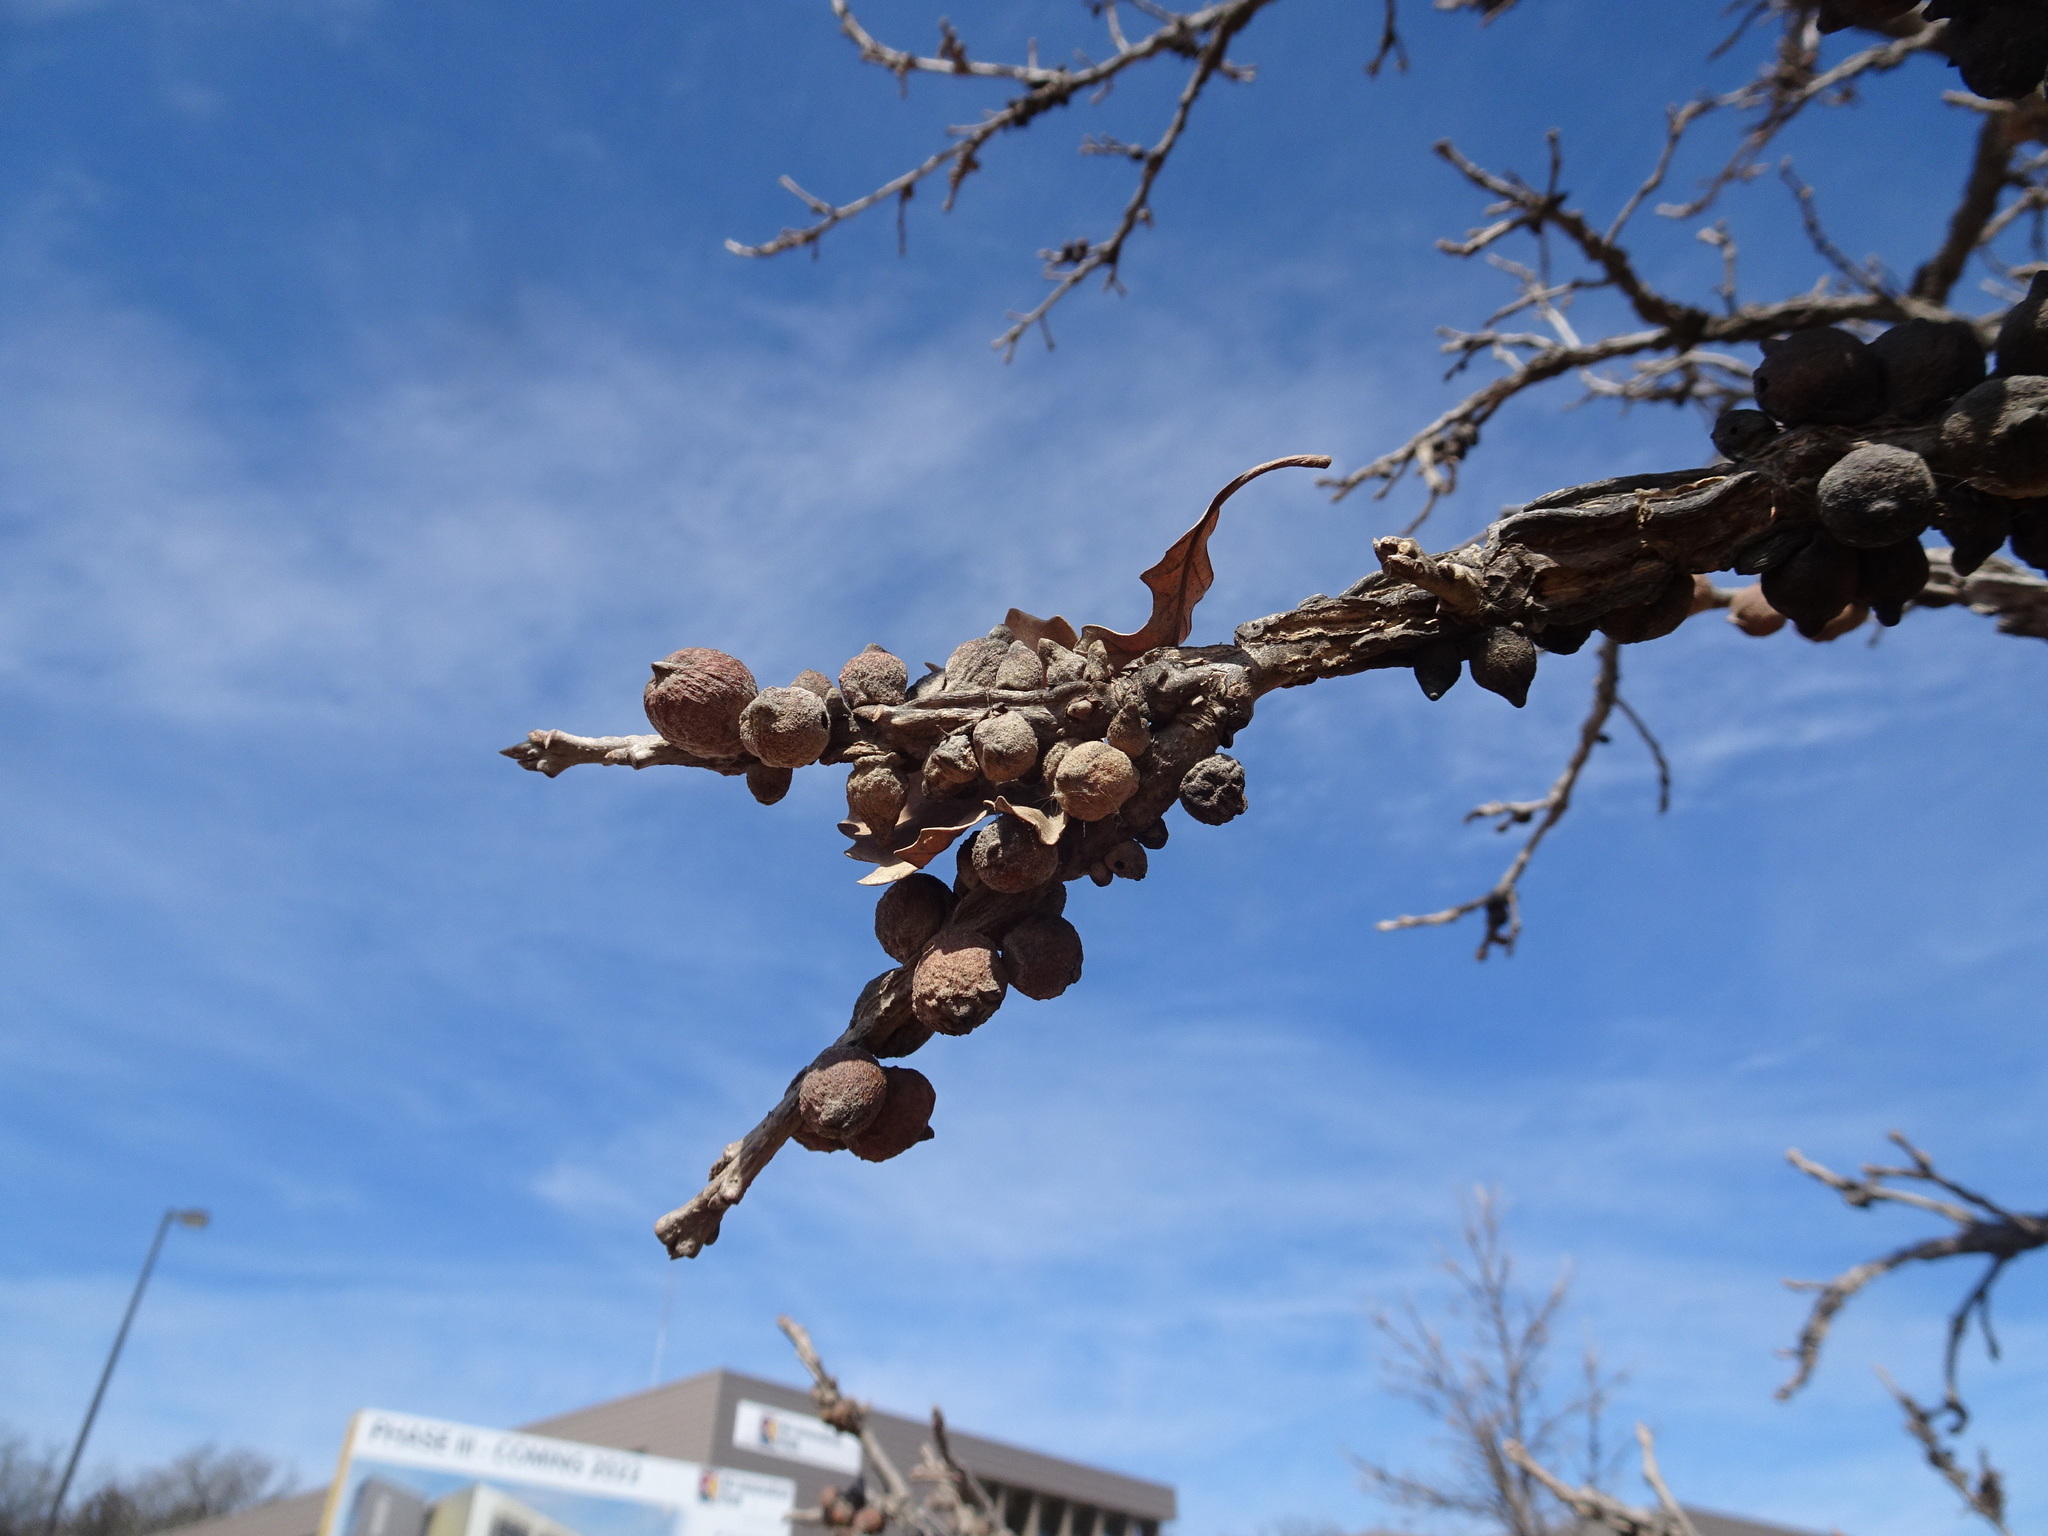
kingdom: Animalia
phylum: Arthropoda
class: Insecta
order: Hymenoptera
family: Cynipidae
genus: Disholcaspis
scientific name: Disholcaspis
